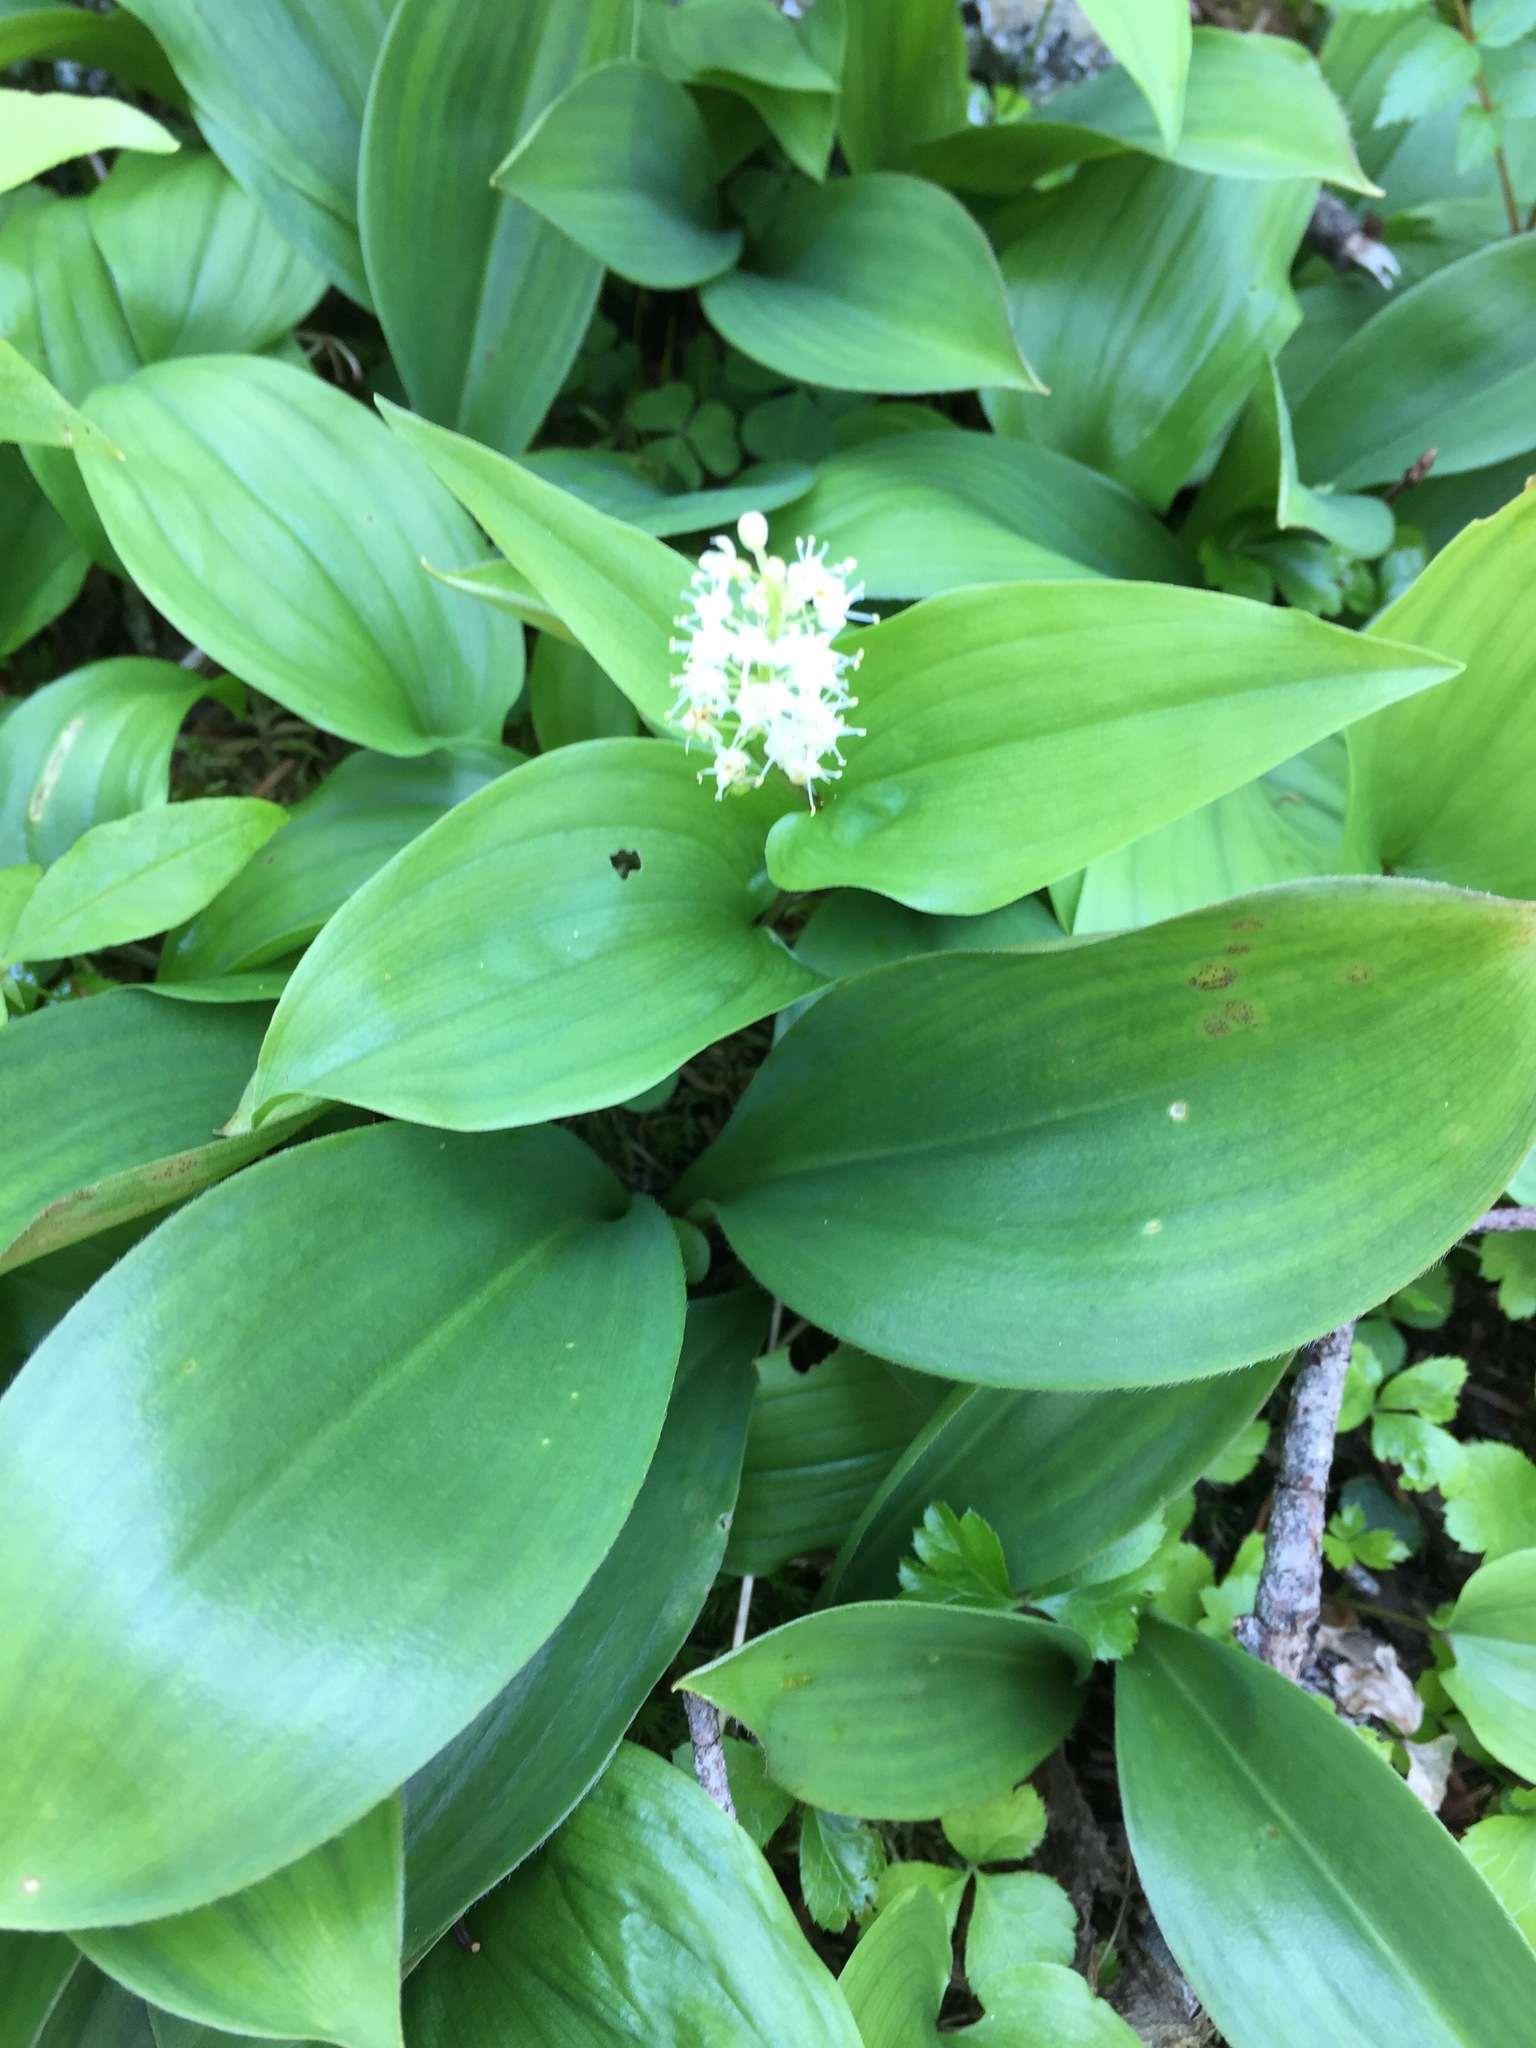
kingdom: Plantae
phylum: Tracheophyta
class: Liliopsida
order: Asparagales
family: Asparagaceae
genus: Maianthemum
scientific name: Maianthemum canadense
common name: False lily-of-the-valley
